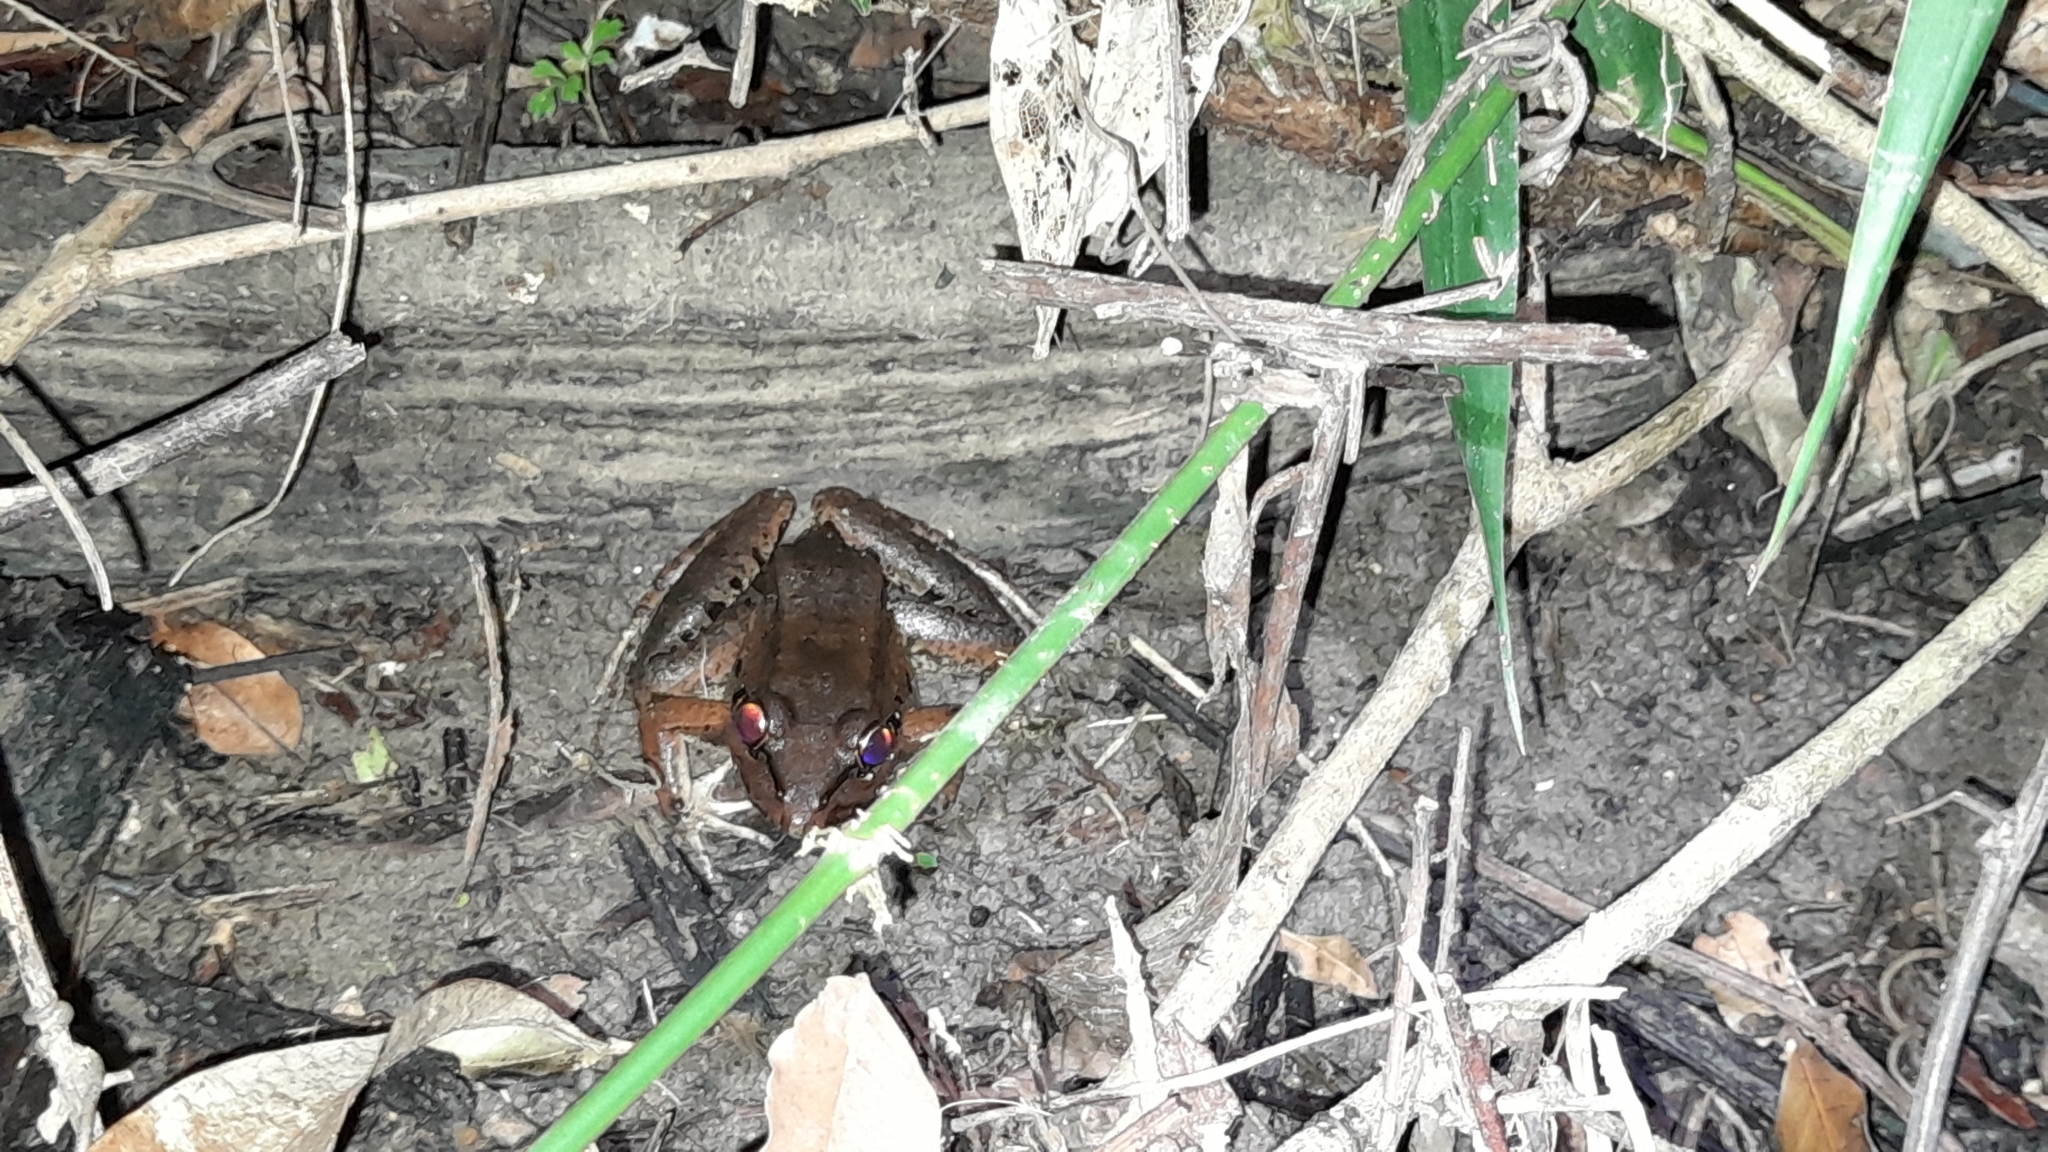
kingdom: Animalia
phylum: Chordata
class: Amphibia
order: Anura
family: Leptodactylidae
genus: Leptodactylus
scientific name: Leptodactylus insularum
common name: San miguel island frog
